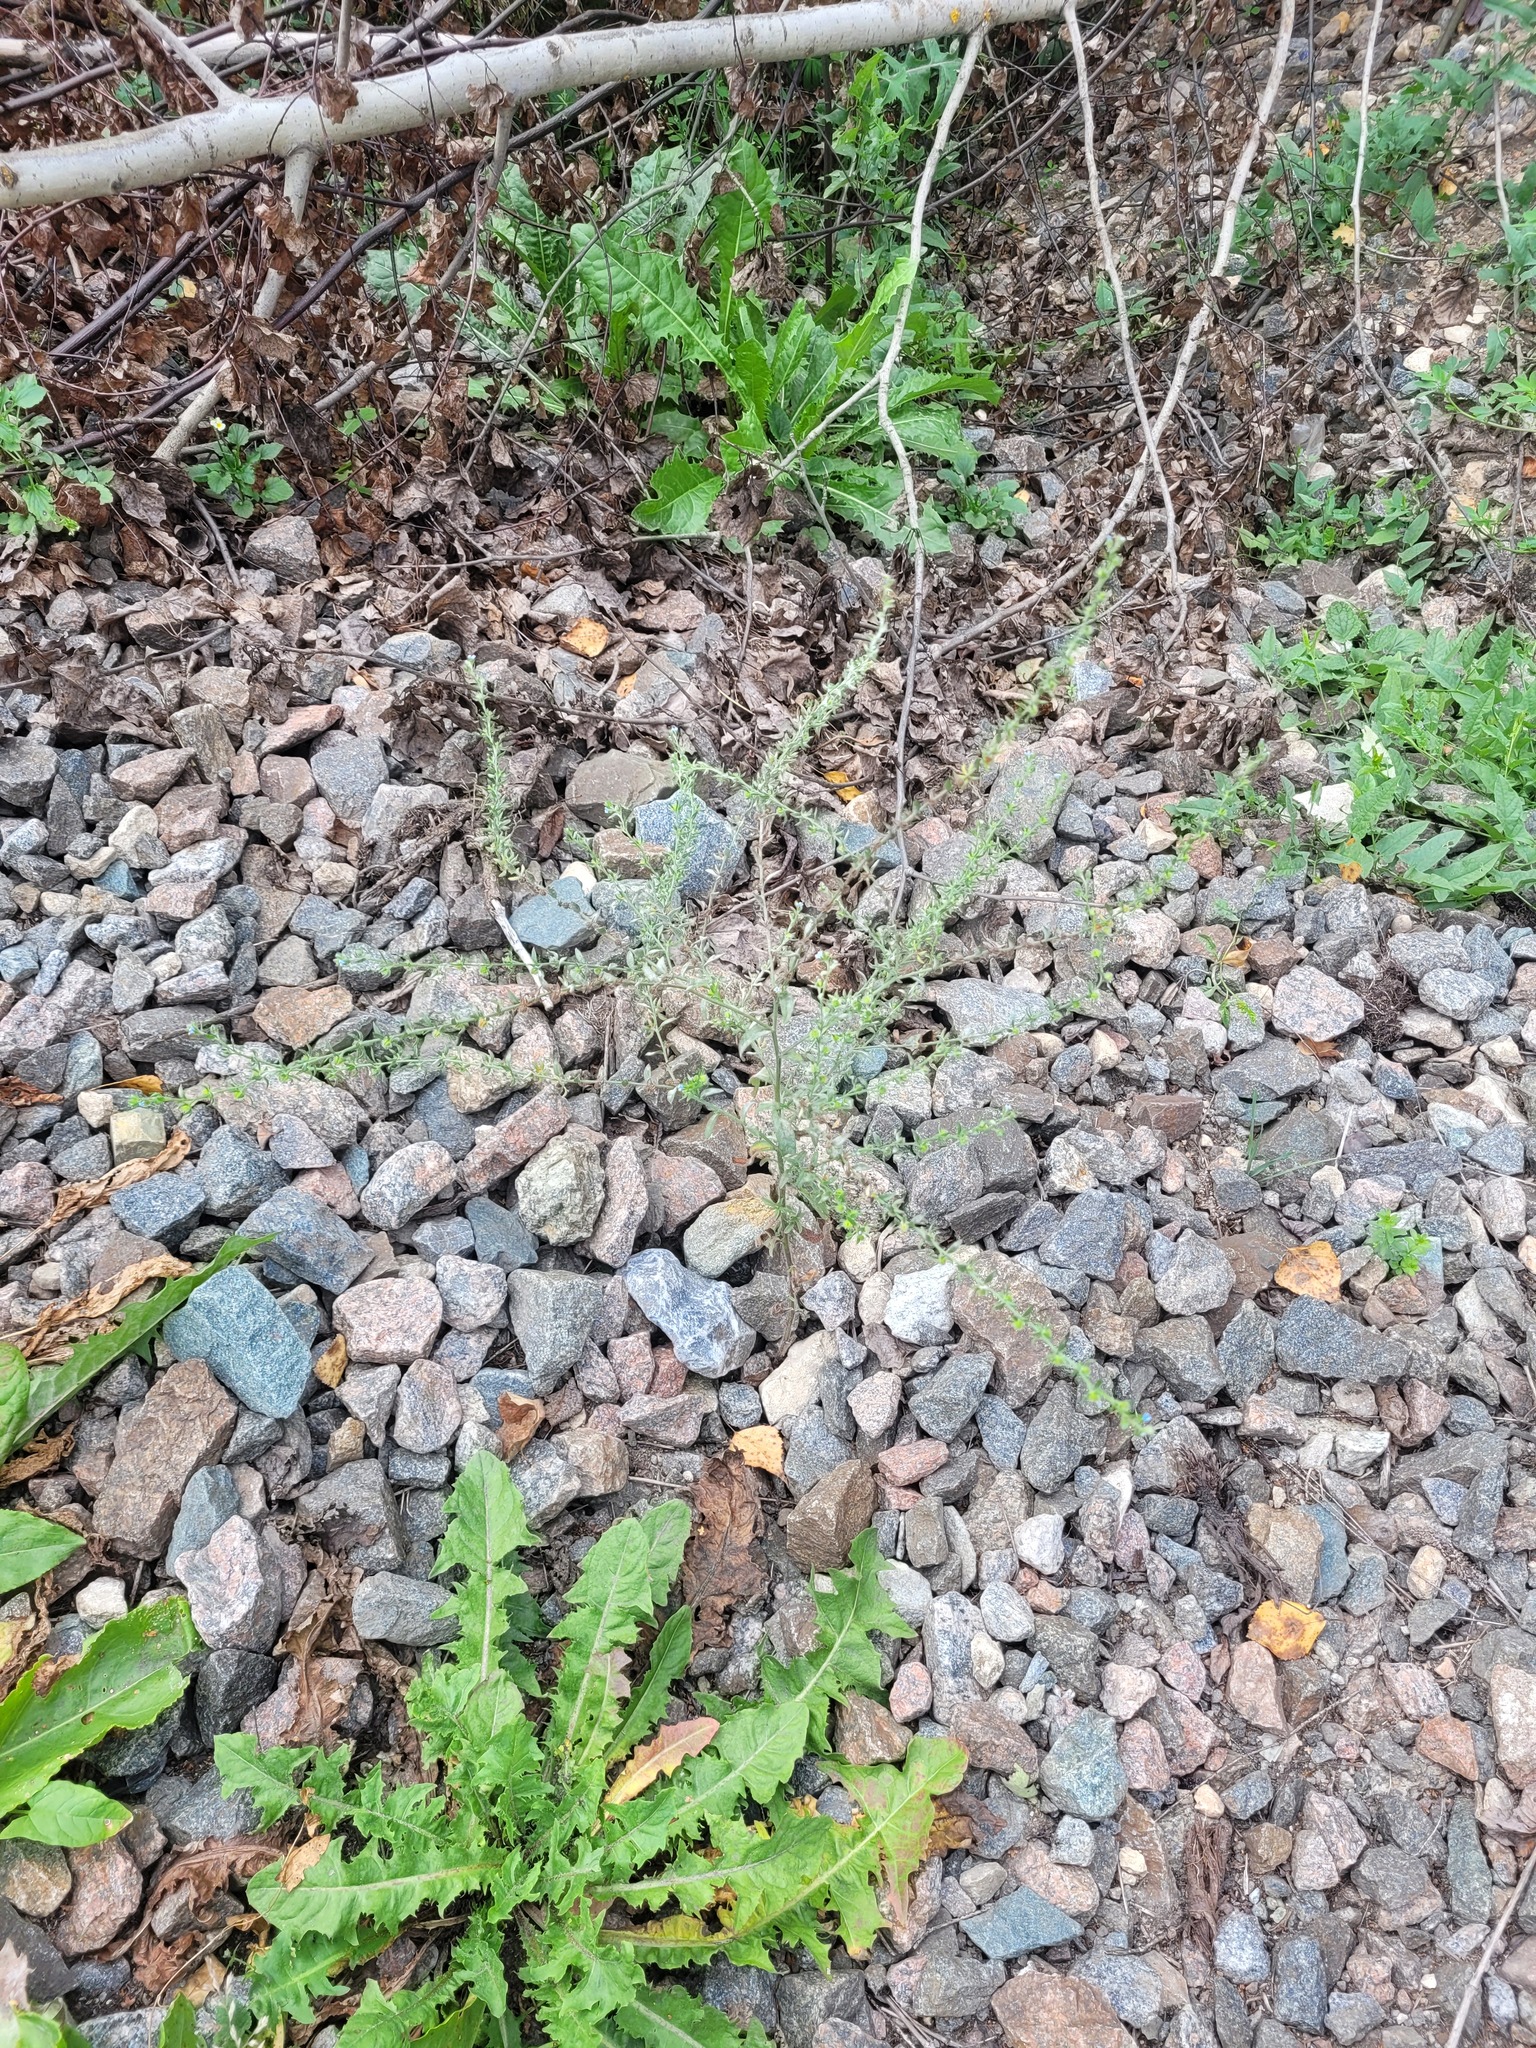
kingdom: Plantae
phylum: Tracheophyta
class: Magnoliopsida
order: Boraginales
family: Boraginaceae
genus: Lappula
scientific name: Lappula squarrosa
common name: European stickseed
